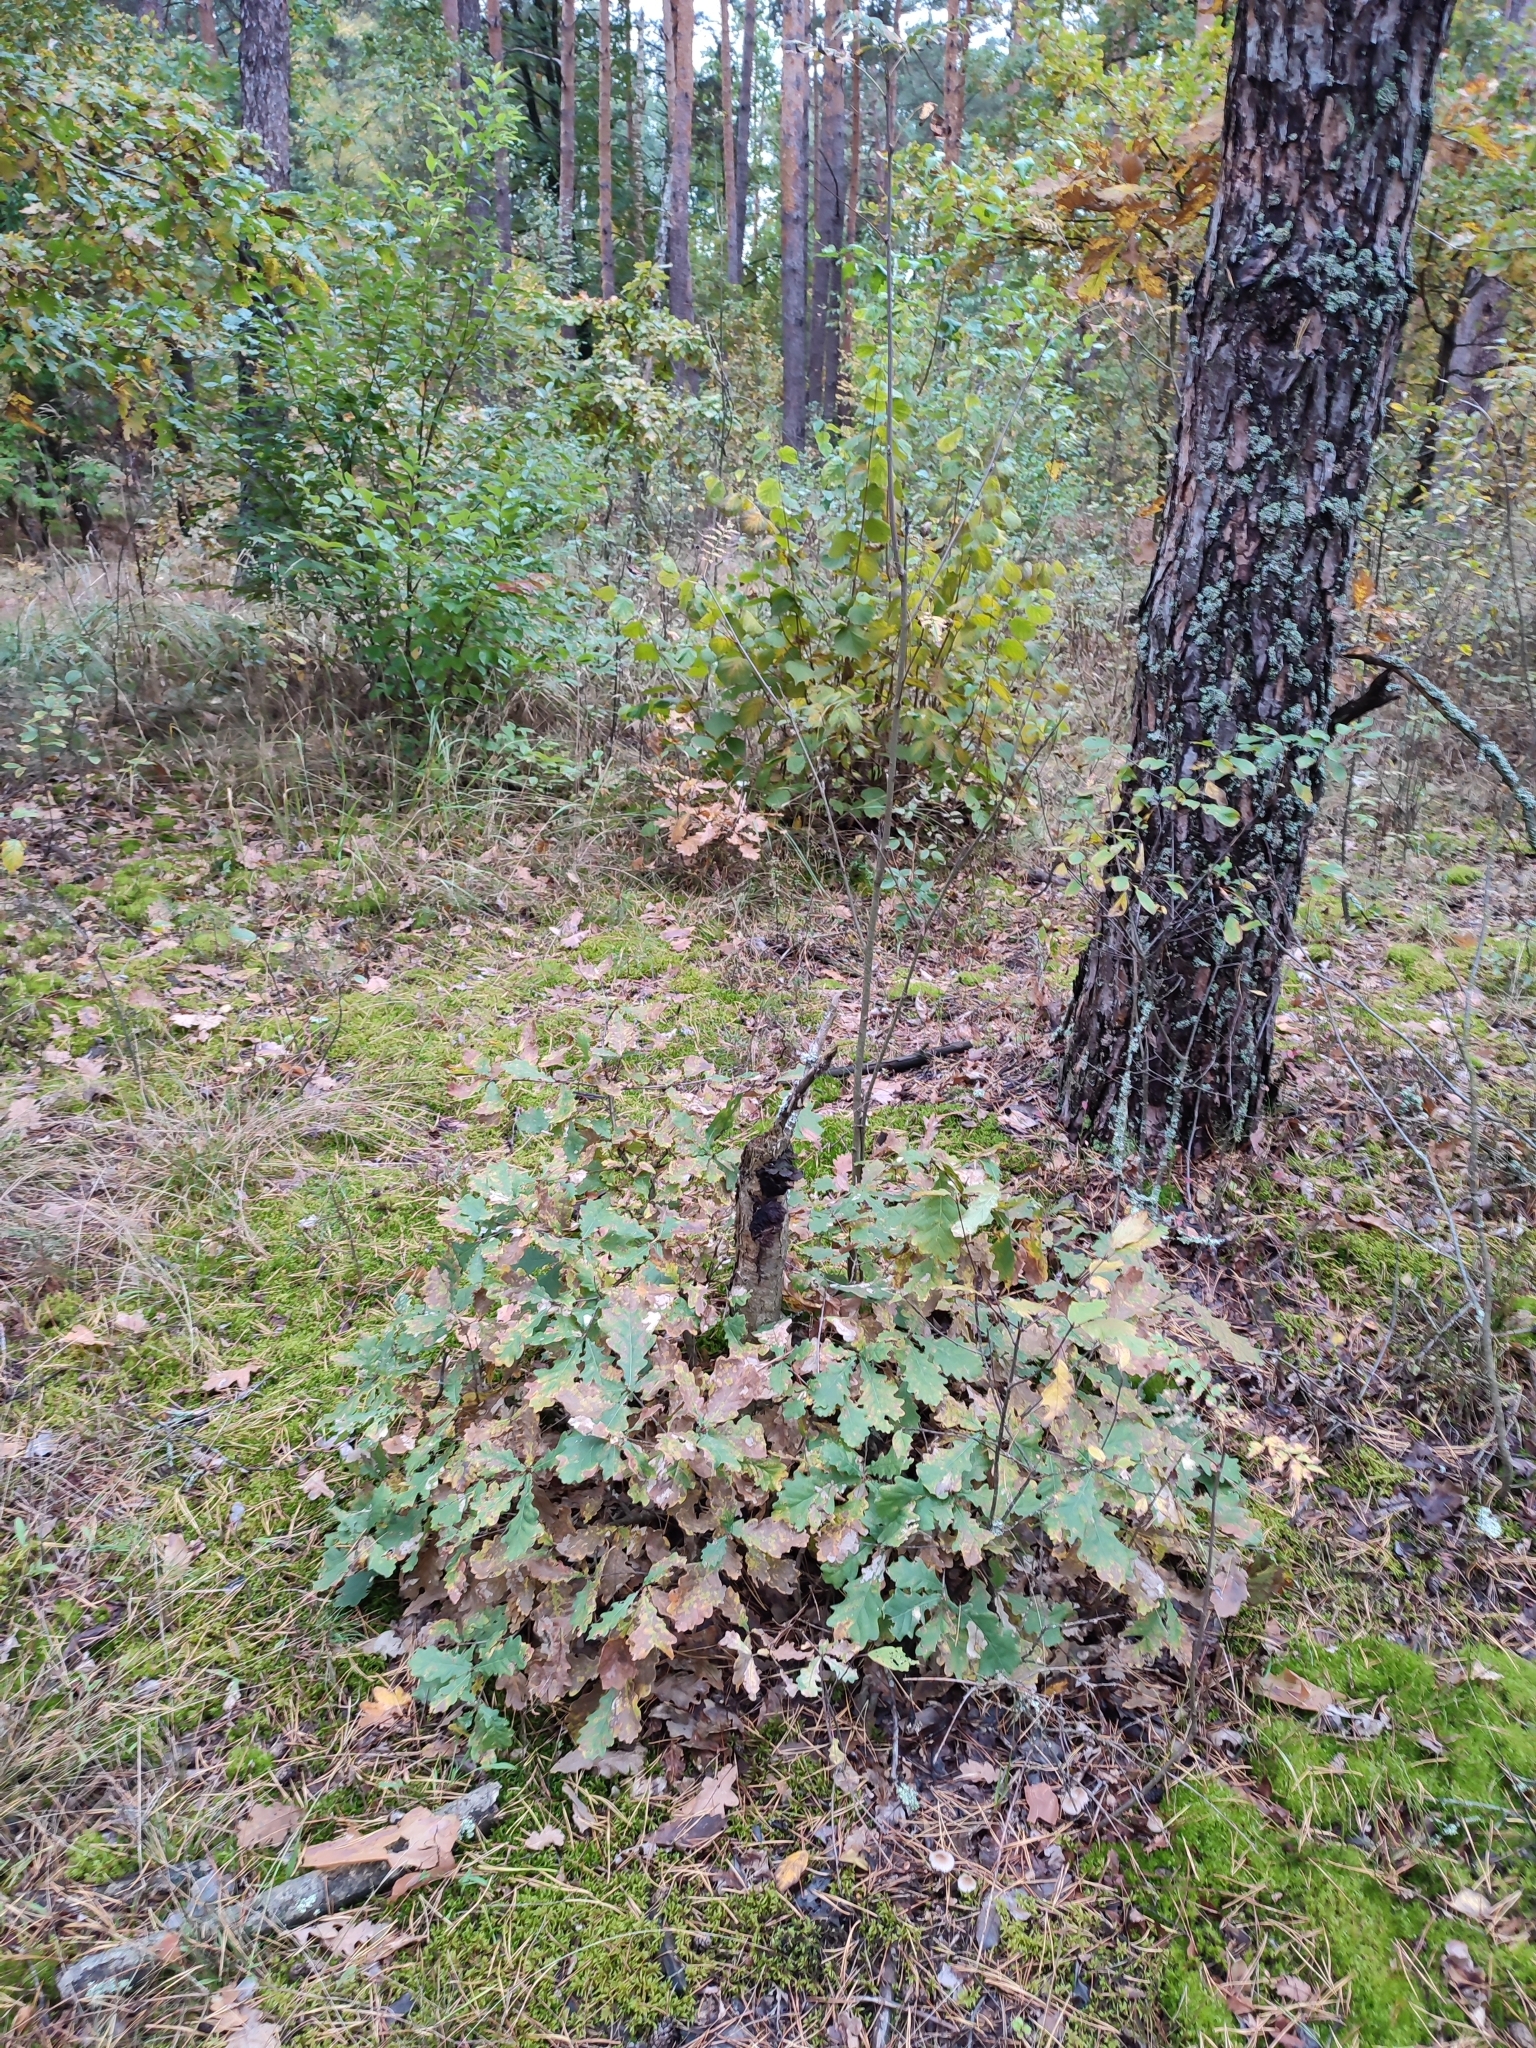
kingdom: Plantae
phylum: Tracheophyta
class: Magnoliopsida
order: Fagales
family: Fagaceae
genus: Quercus
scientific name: Quercus robur
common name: Pedunculate oak
